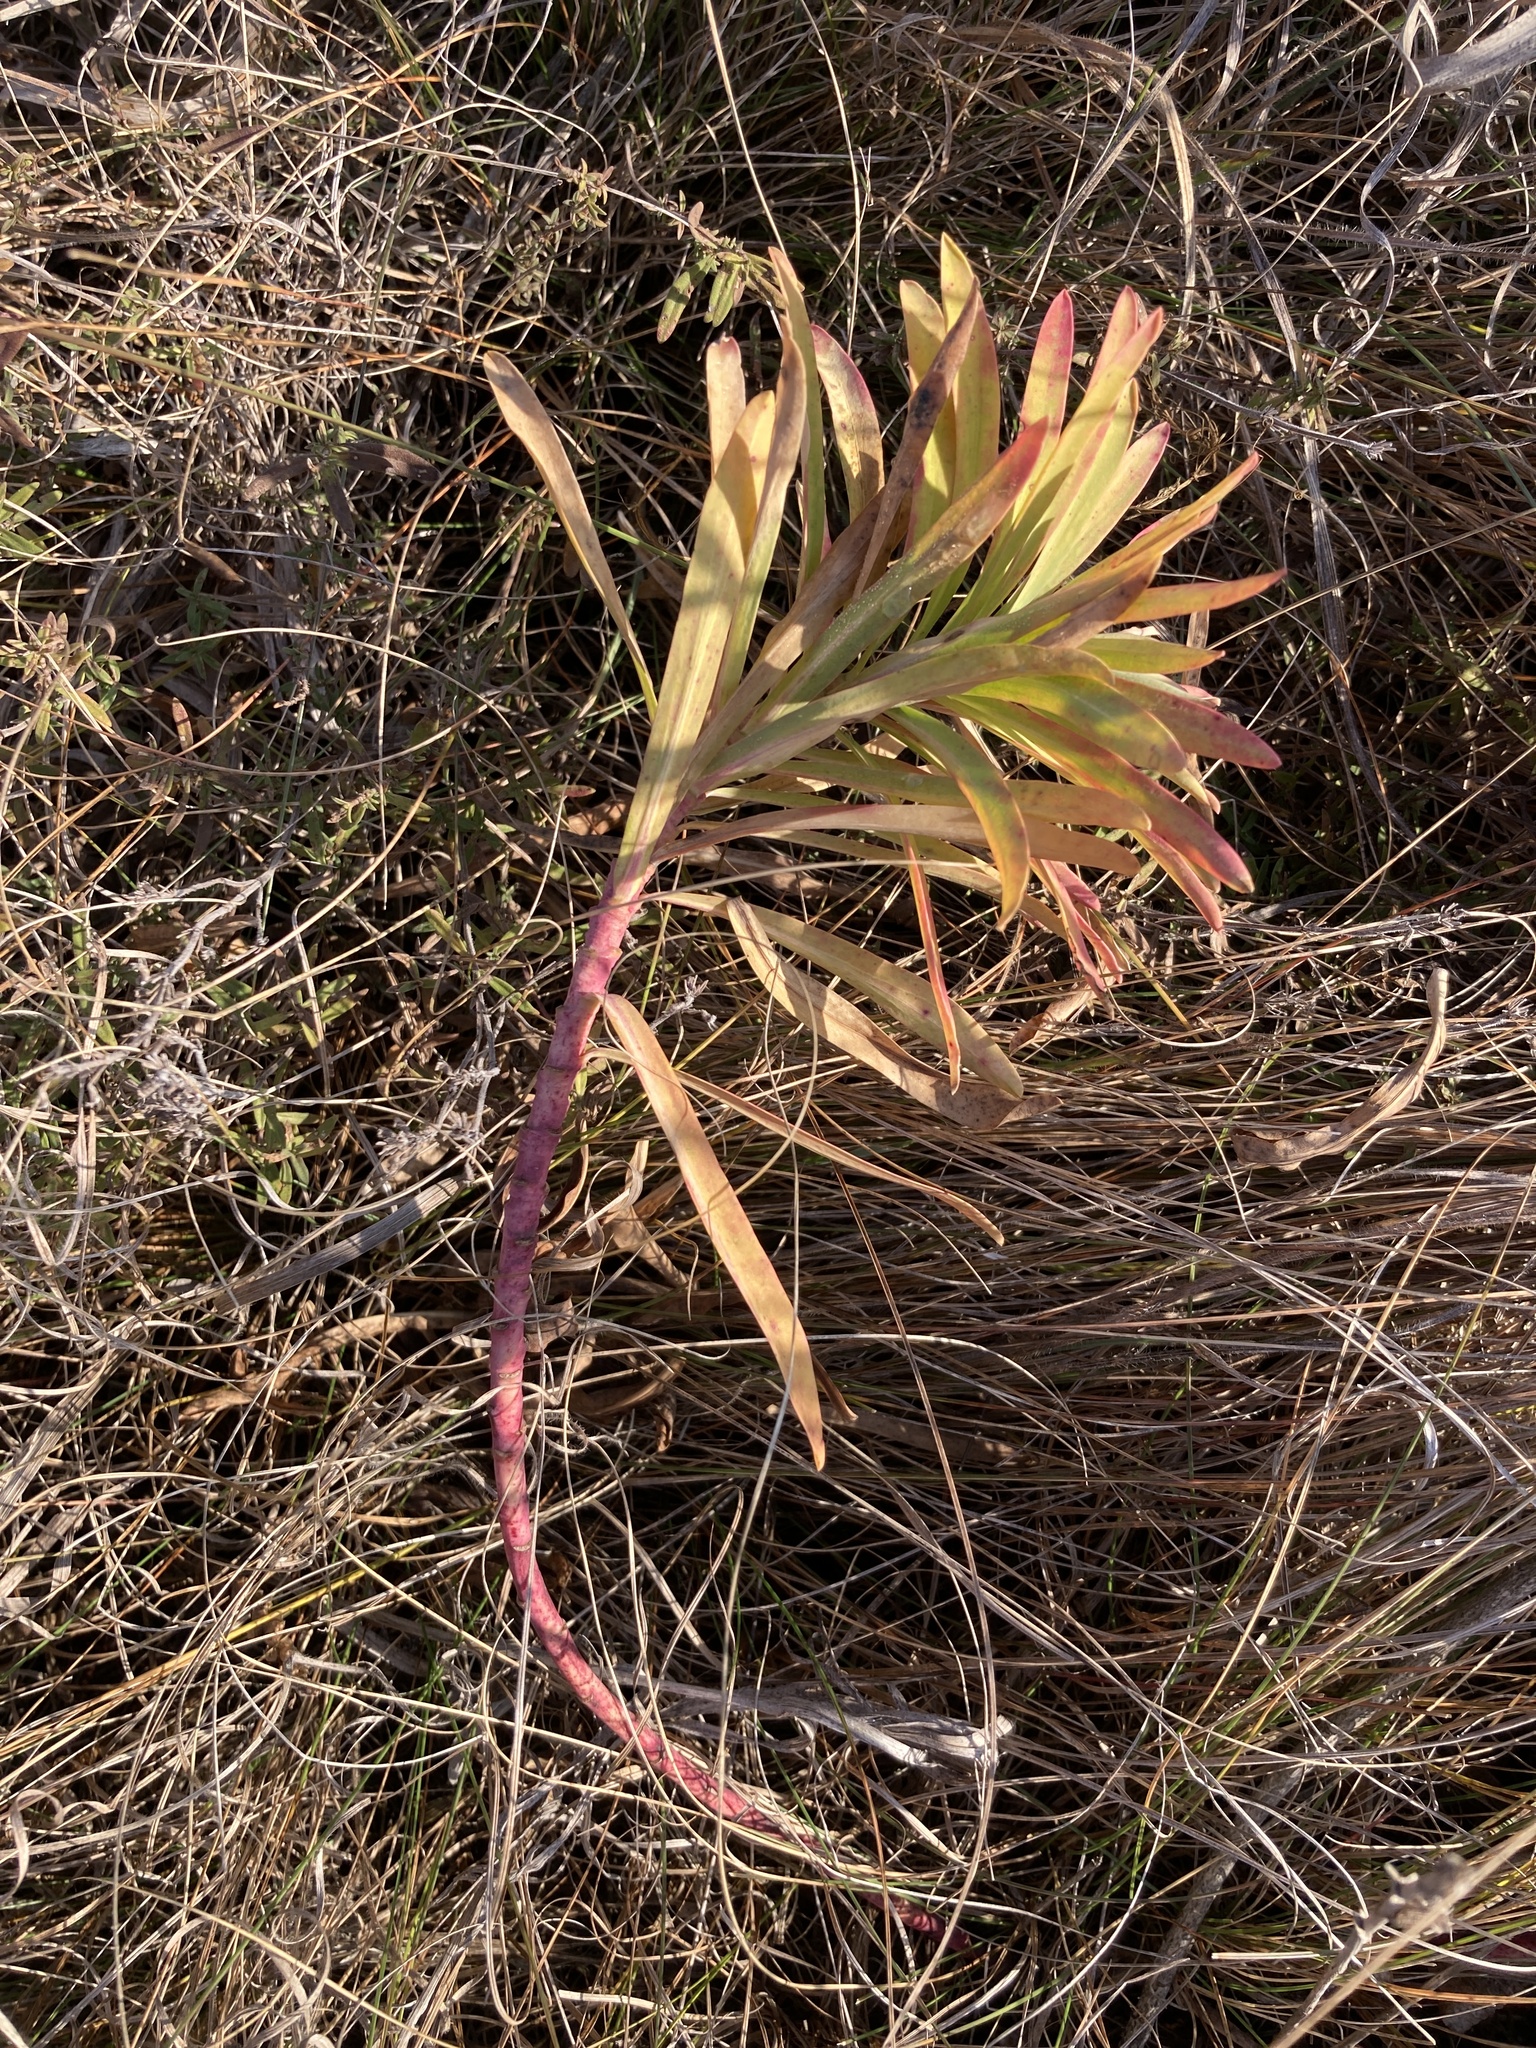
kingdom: Plantae
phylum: Tracheophyta
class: Magnoliopsida
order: Malpighiales
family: Euphorbiaceae
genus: Euphorbia
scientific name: Euphorbia stepposa
